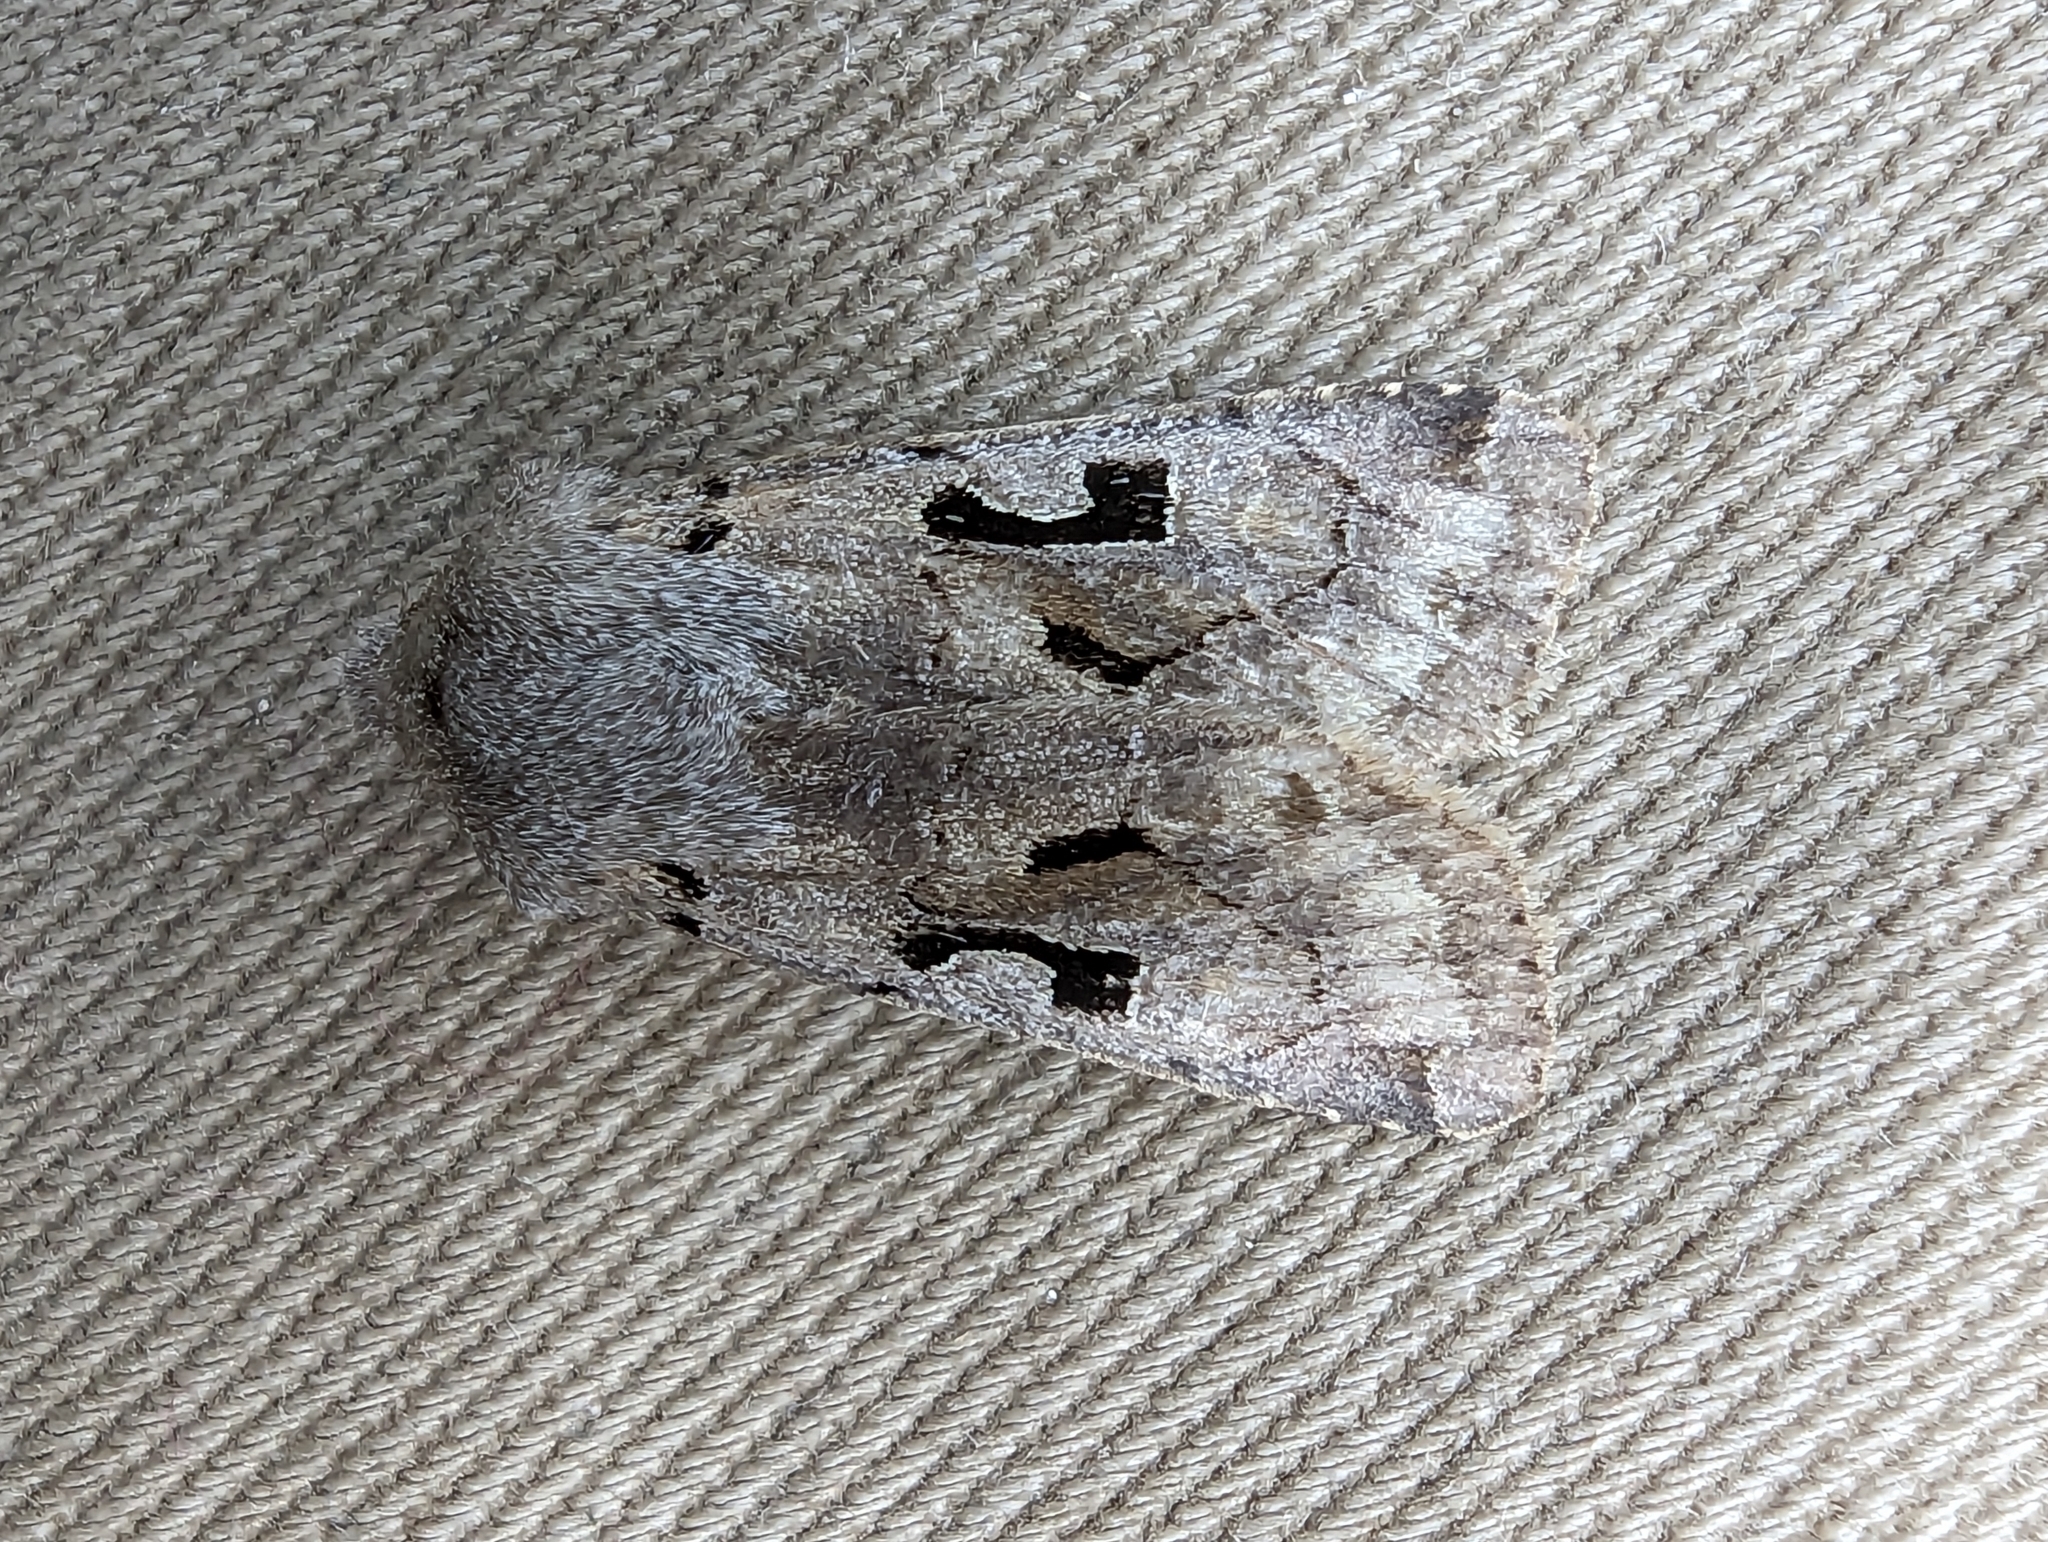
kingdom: Animalia
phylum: Arthropoda
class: Insecta
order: Lepidoptera
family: Noctuidae
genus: Orthosia
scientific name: Orthosia gothica
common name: Hebrew character
